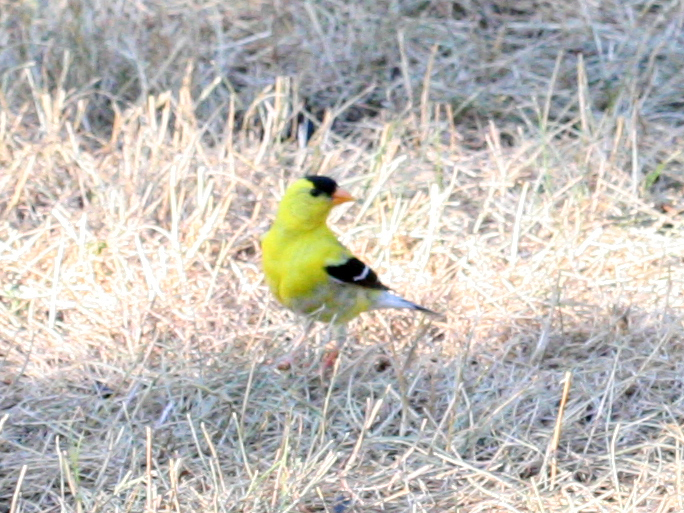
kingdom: Animalia
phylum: Chordata
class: Aves
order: Passeriformes
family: Fringillidae
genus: Spinus
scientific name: Spinus tristis
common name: American goldfinch
